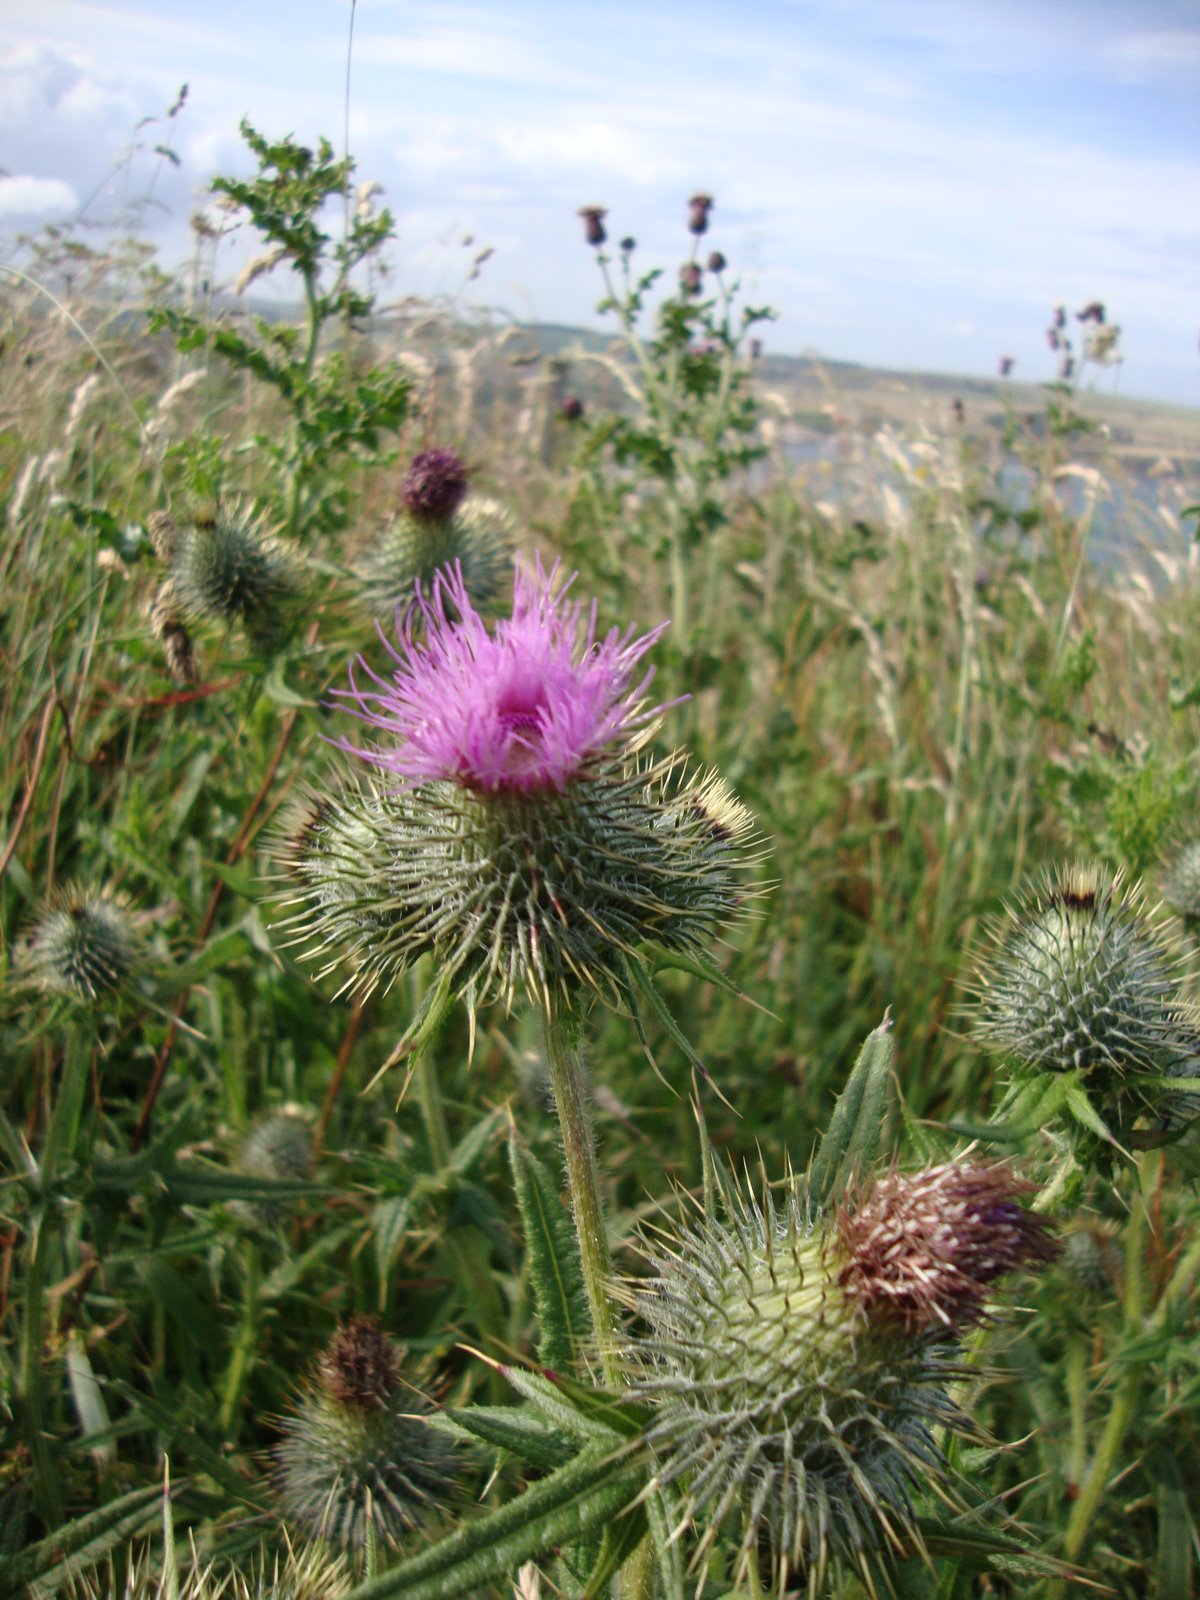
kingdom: Plantae
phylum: Tracheophyta
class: Magnoliopsida
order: Asterales
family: Asteraceae
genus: Cirsium
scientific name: Cirsium vulgare
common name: Bull thistle
